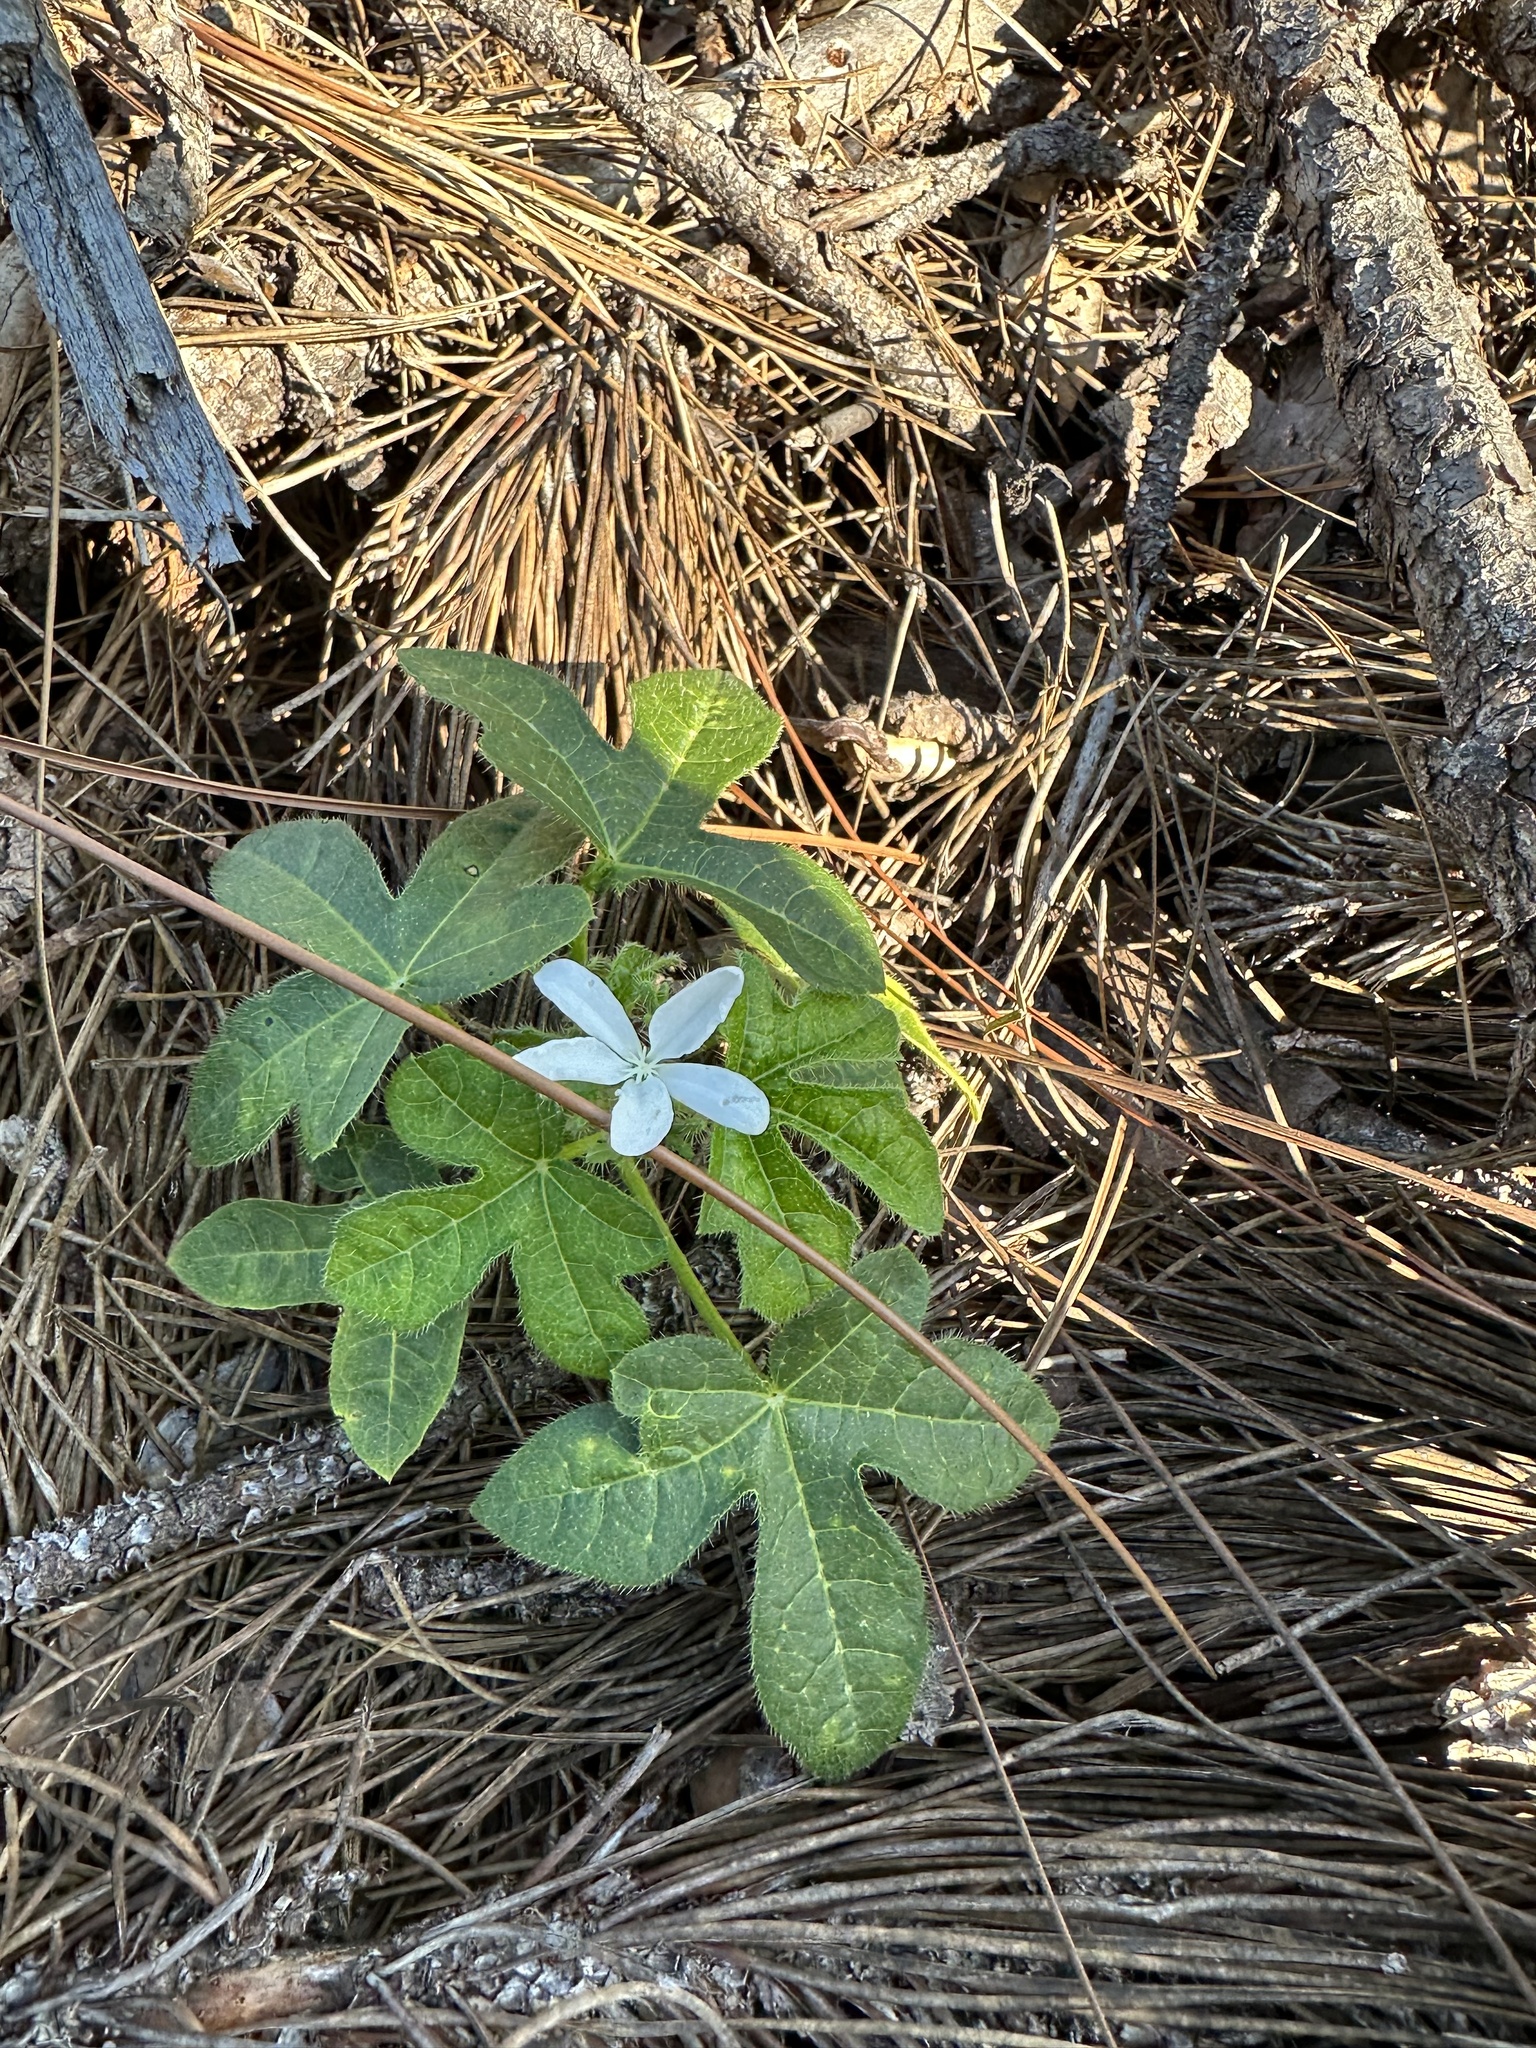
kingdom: Plantae
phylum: Tracheophyta
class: Magnoliopsida
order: Malpighiales
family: Euphorbiaceae
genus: Cnidoscolus
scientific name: Cnidoscolus stimulosus
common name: Bull-nettle
